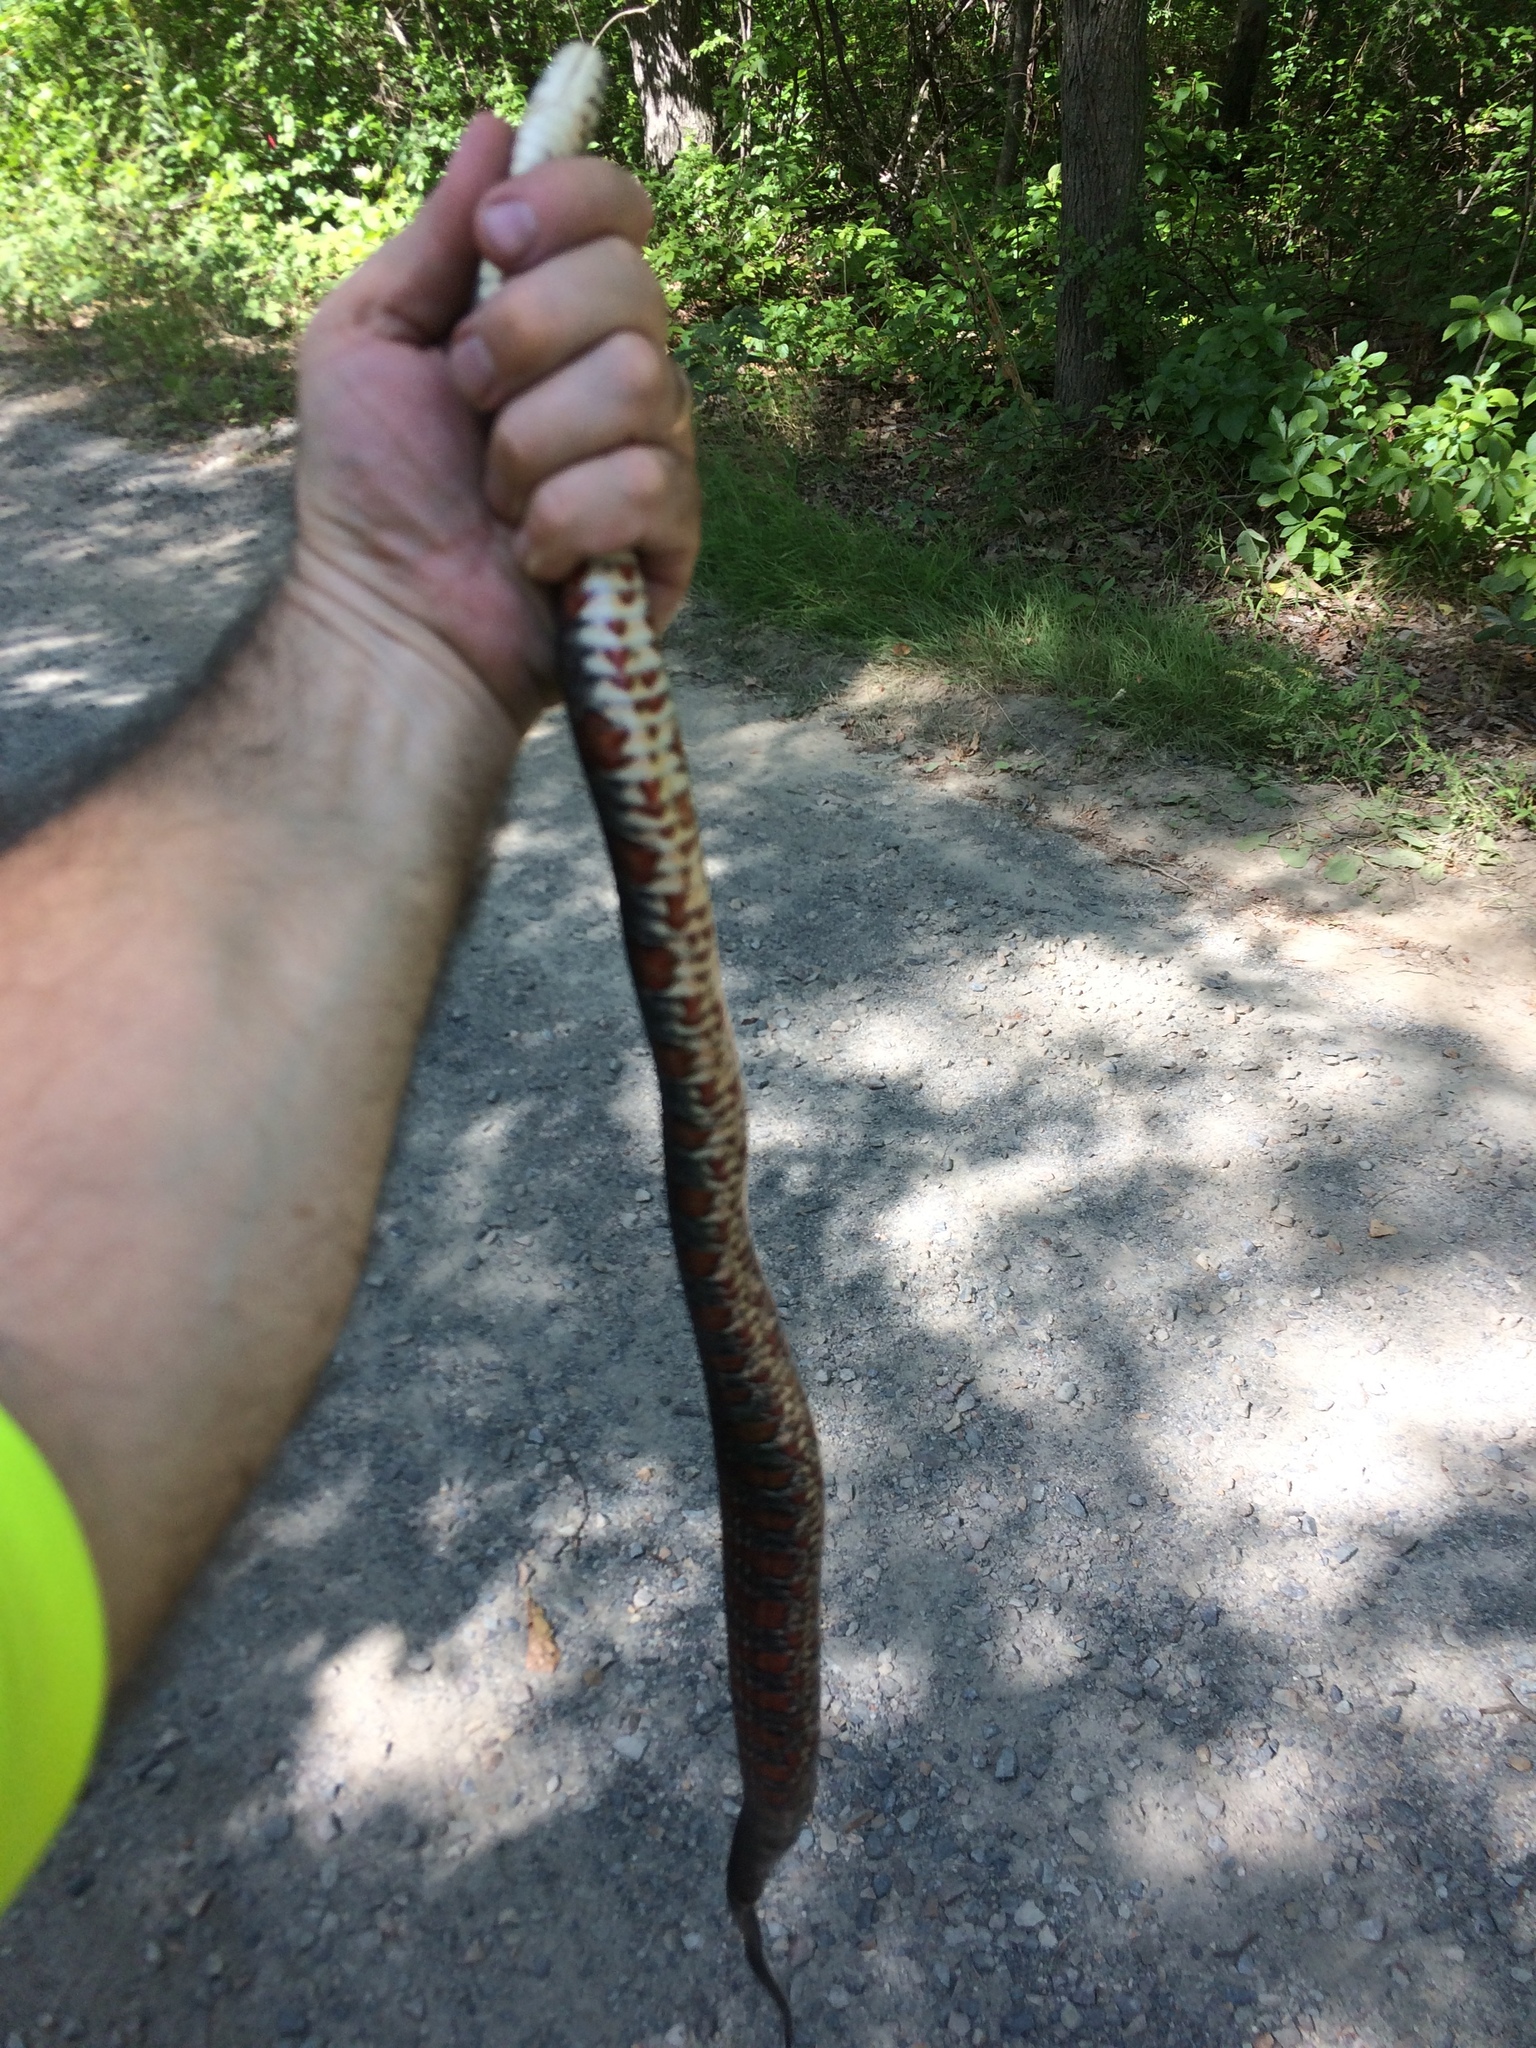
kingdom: Animalia
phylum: Chordata
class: Squamata
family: Colubridae
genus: Nerodia
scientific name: Nerodia sipedon
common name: Northern water snake
